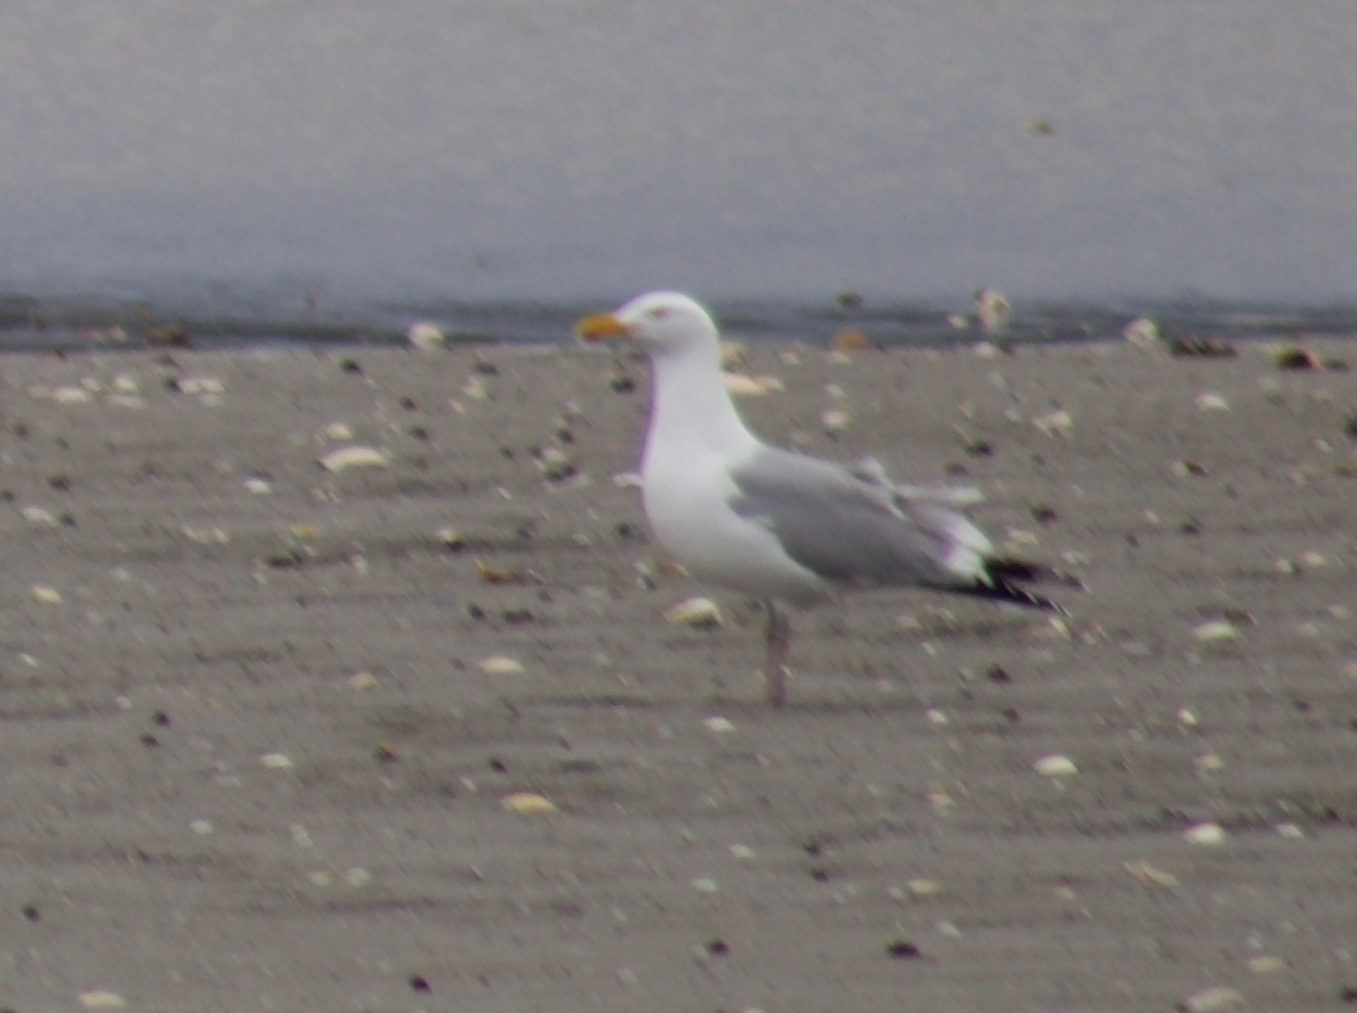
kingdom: Animalia
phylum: Chordata
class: Aves
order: Charadriiformes
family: Laridae
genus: Larus
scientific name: Larus argentatus
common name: Herring gull
